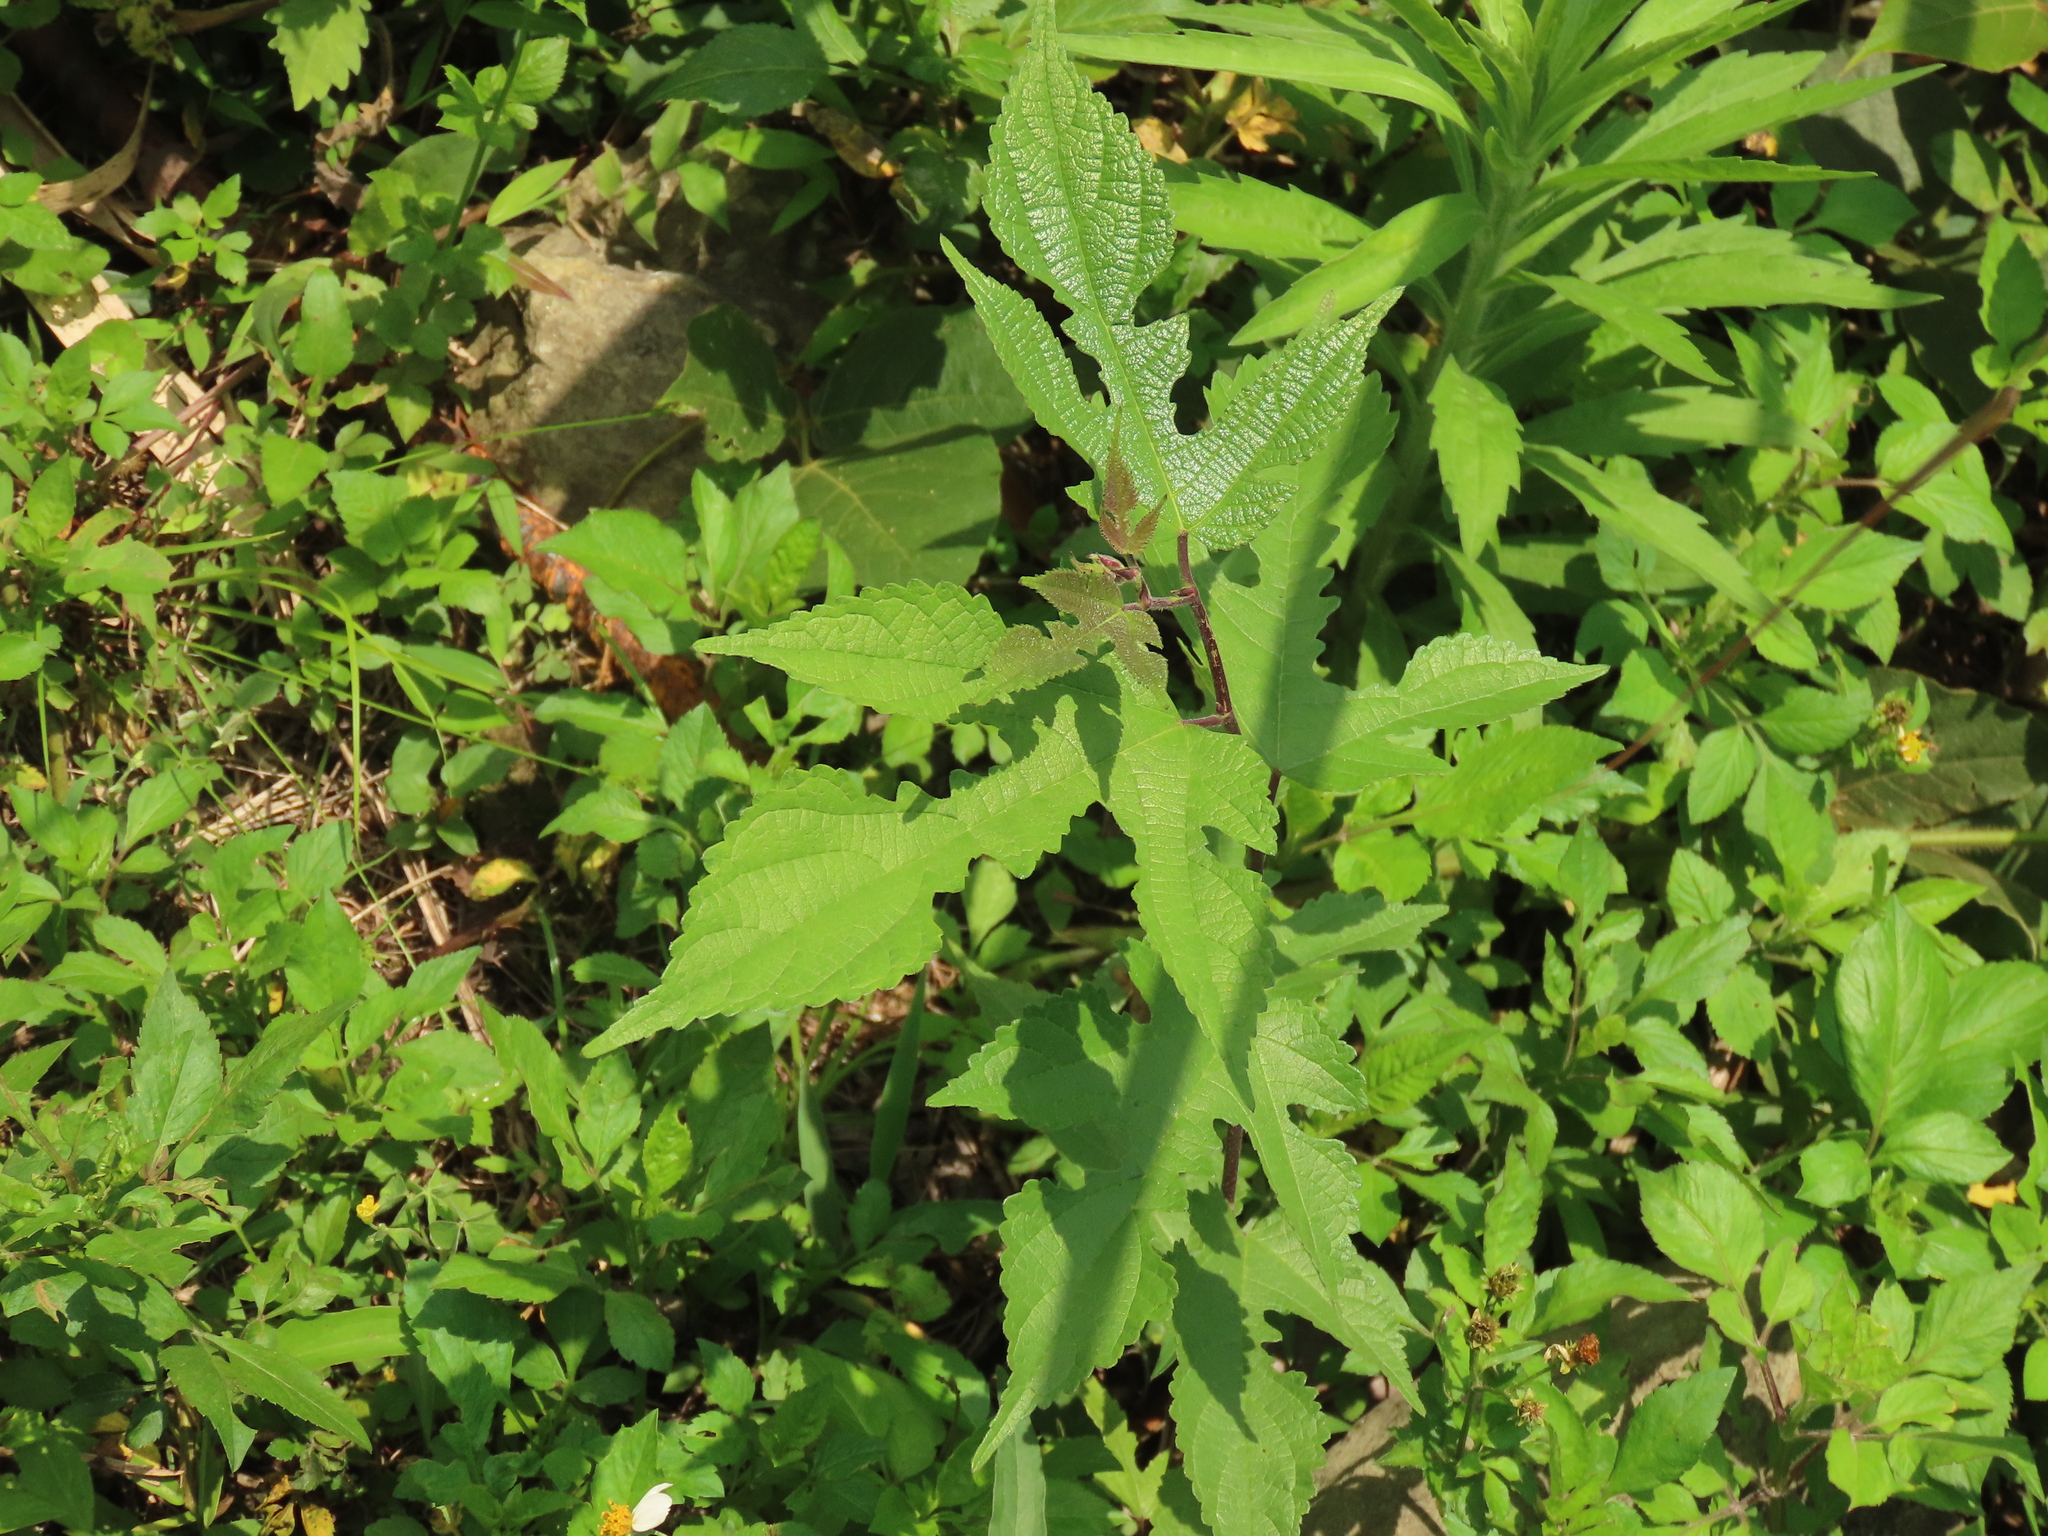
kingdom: Plantae
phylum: Tracheophyta
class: Magnoliopsida
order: Rosales
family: Moraceae
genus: Broussonetia
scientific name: Broussonetia papyrifera
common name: Paper mulberry
